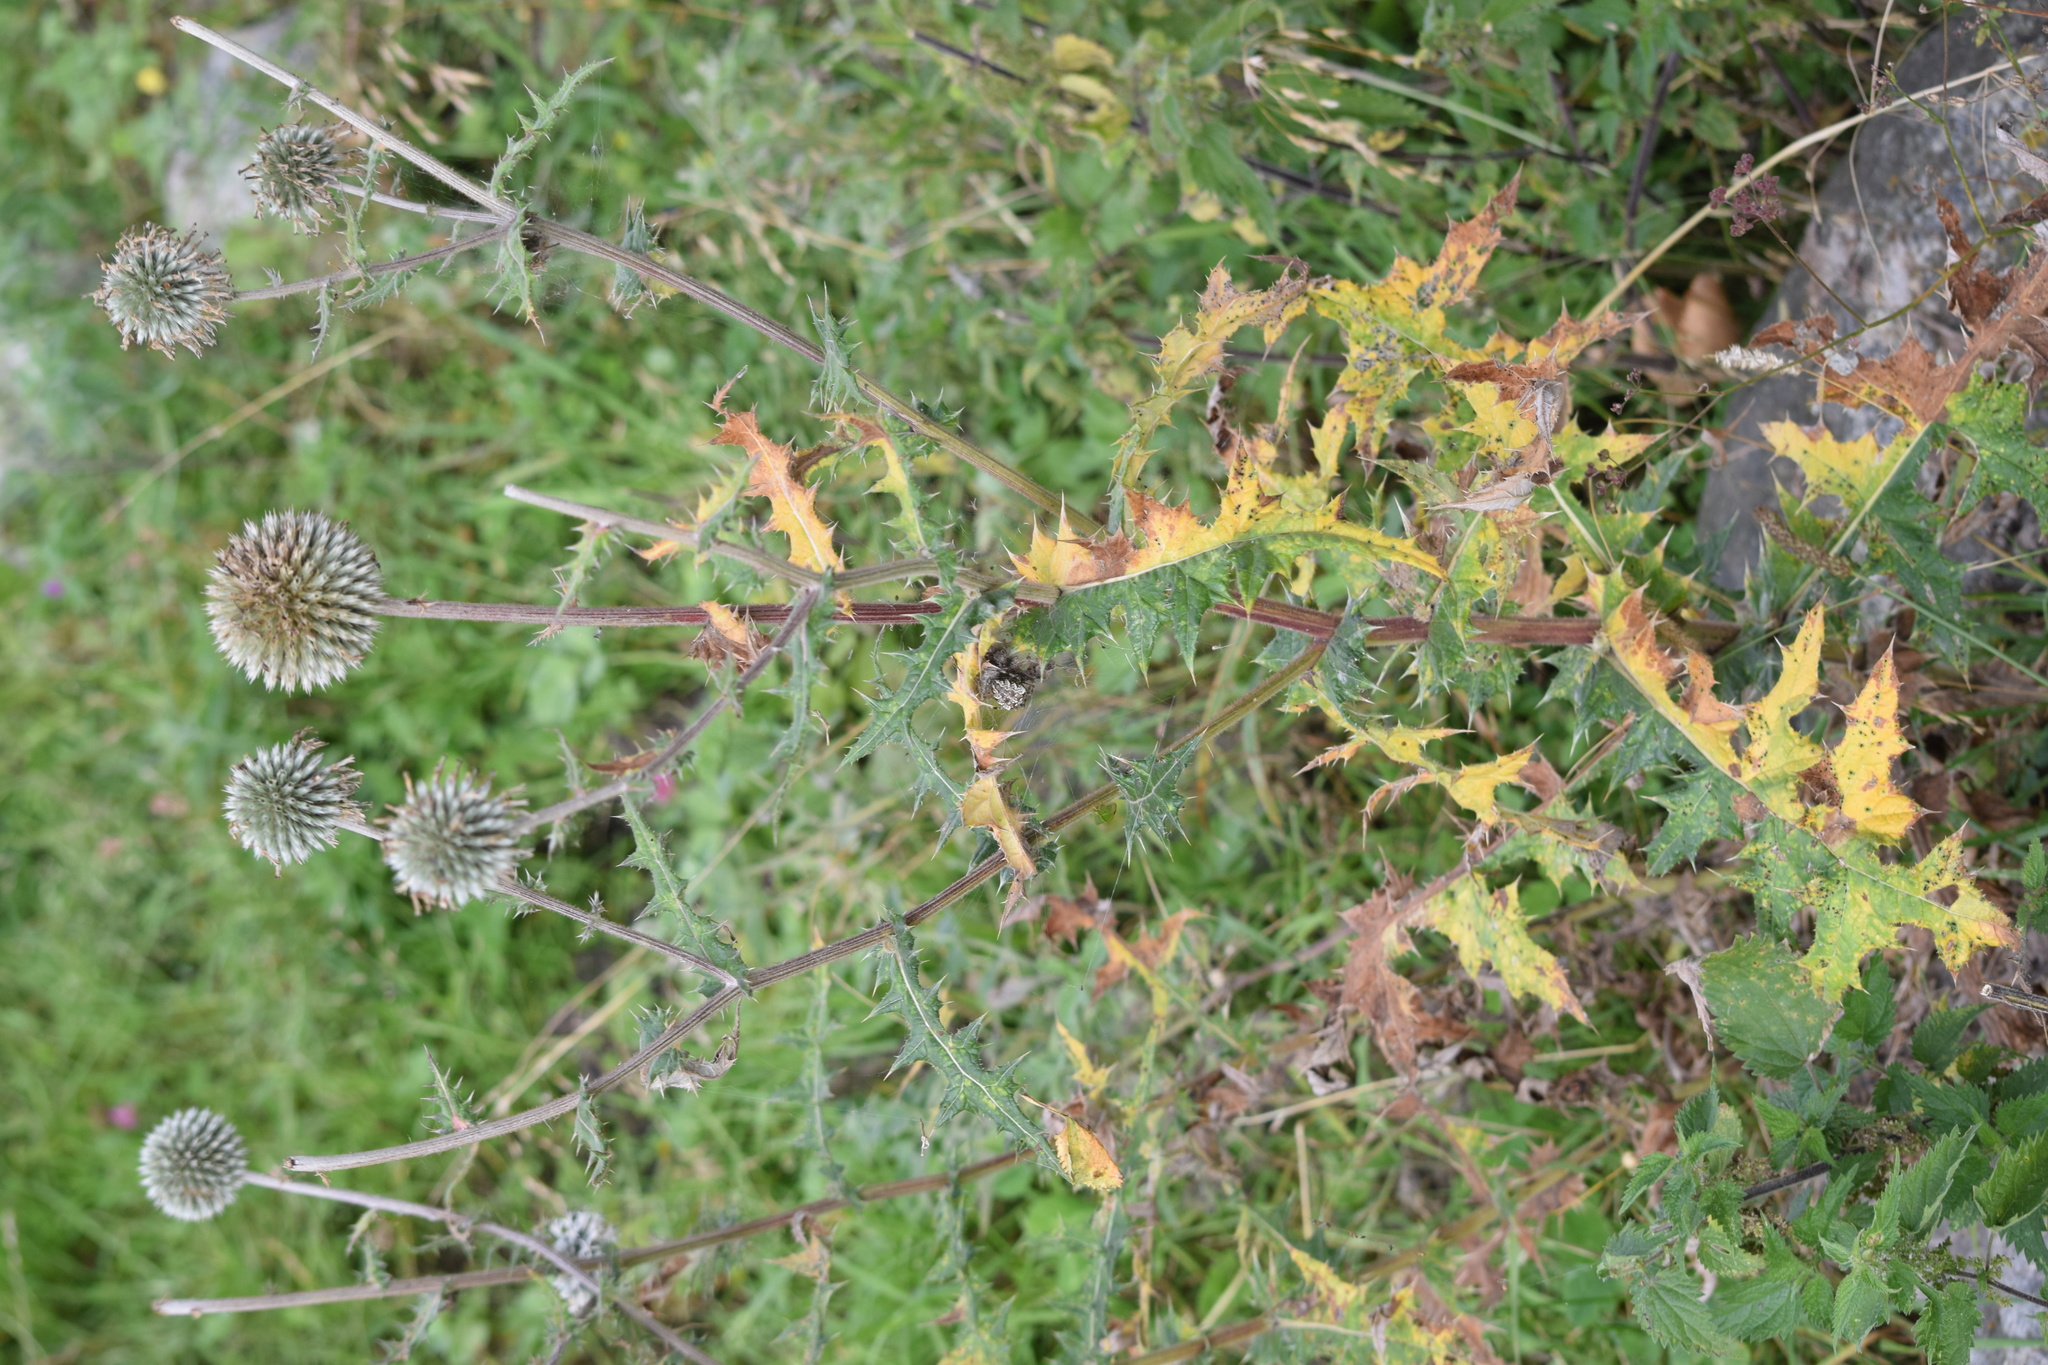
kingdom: Plantae
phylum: Tracheophyta
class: Magnoliopsida
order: Asterales
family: Asteraceae
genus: Echinops
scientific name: Echinops sphaerocephalus
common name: Glandular globe-thistle
